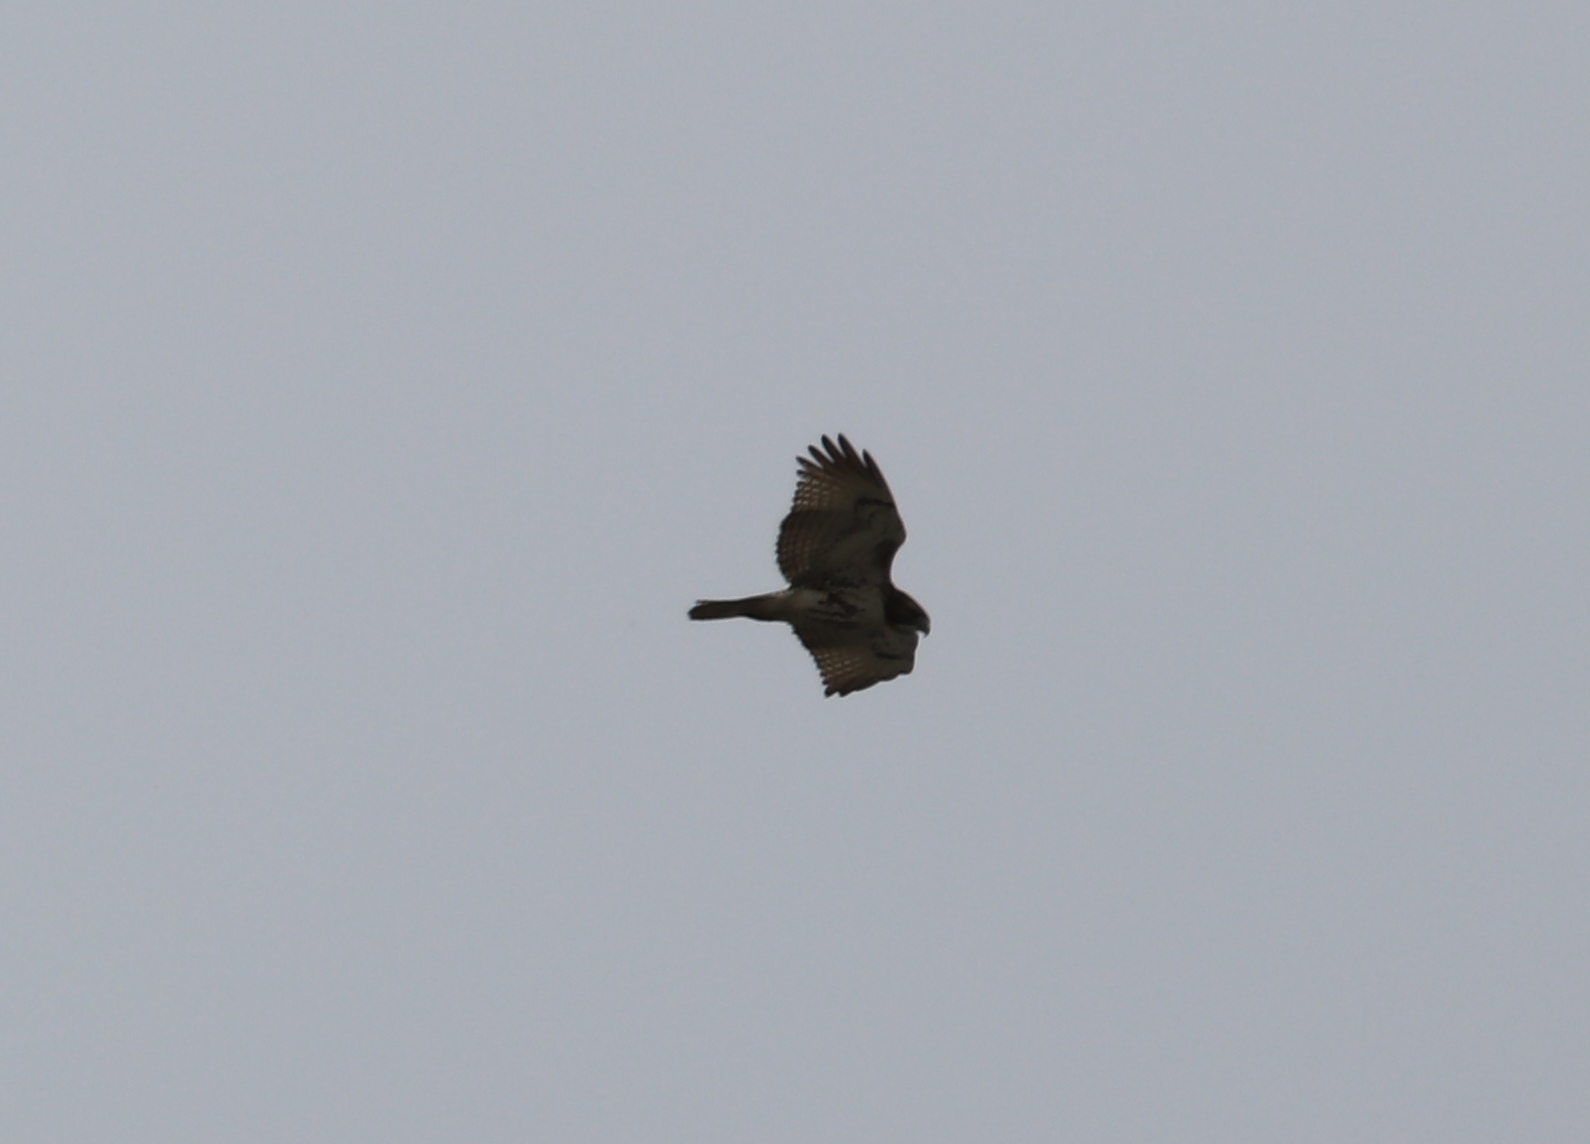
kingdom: Animalia
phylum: Chordata
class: Aves
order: Accipitriformes
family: Accipitridae
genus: Buteo
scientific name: Buteo jamaicensis
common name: Red-tailed hawk
